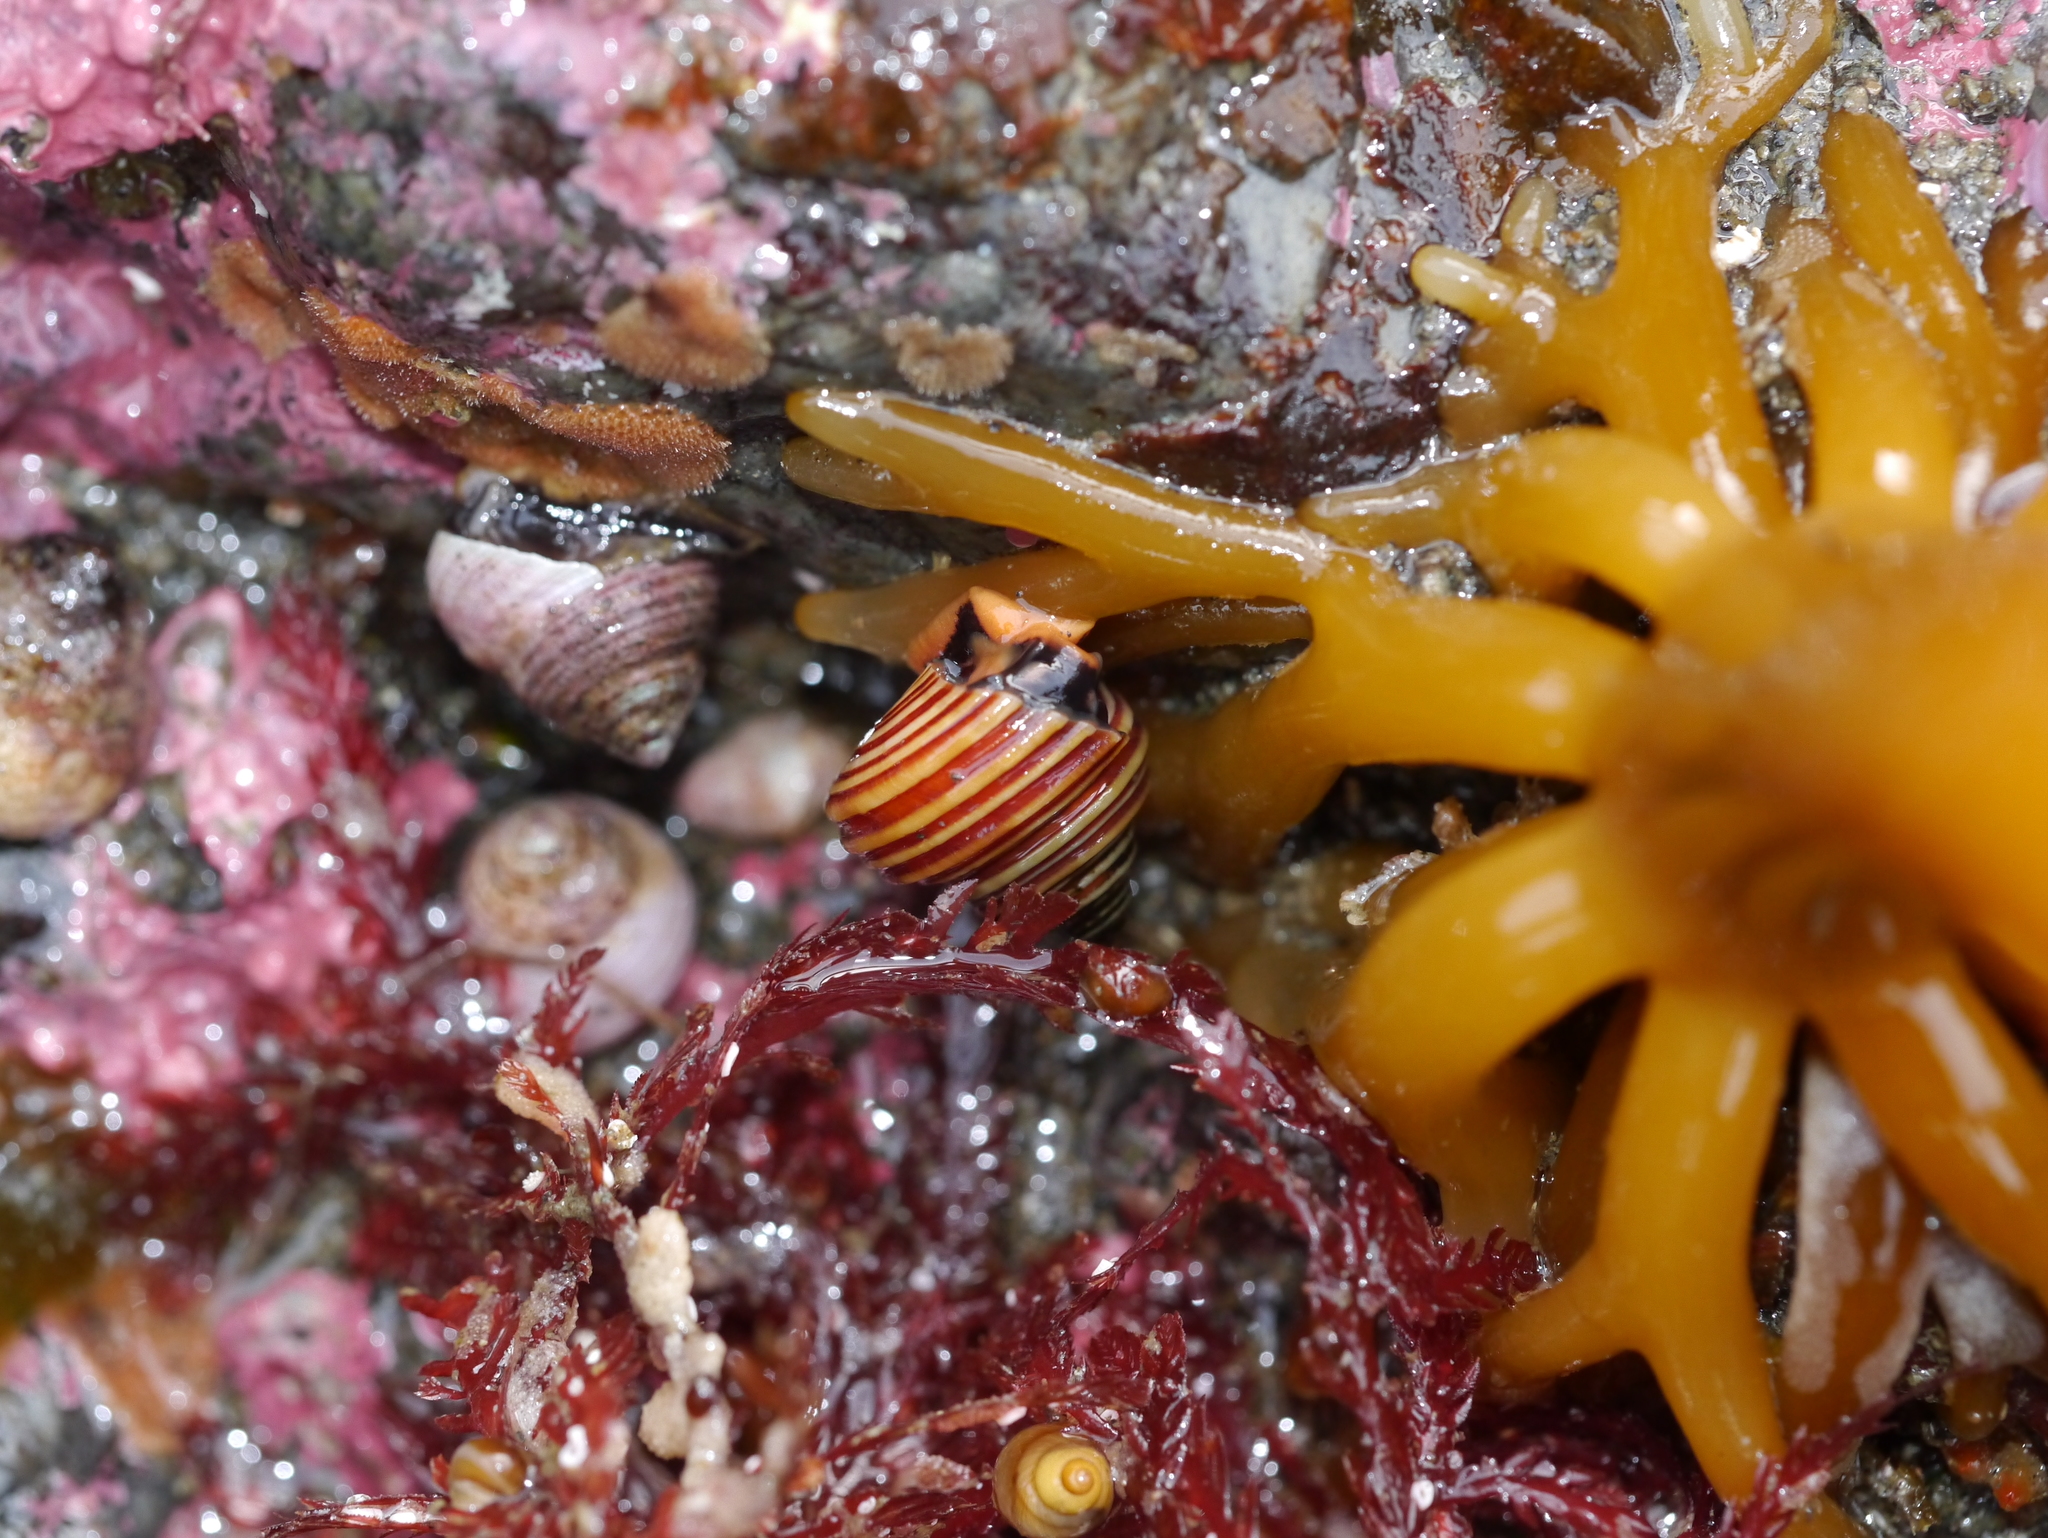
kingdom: Animalia
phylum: Mollusca
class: Gastropoda
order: Trochida
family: Calliostomatidae
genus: Calliostoma
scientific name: Calliostoma ligatum
